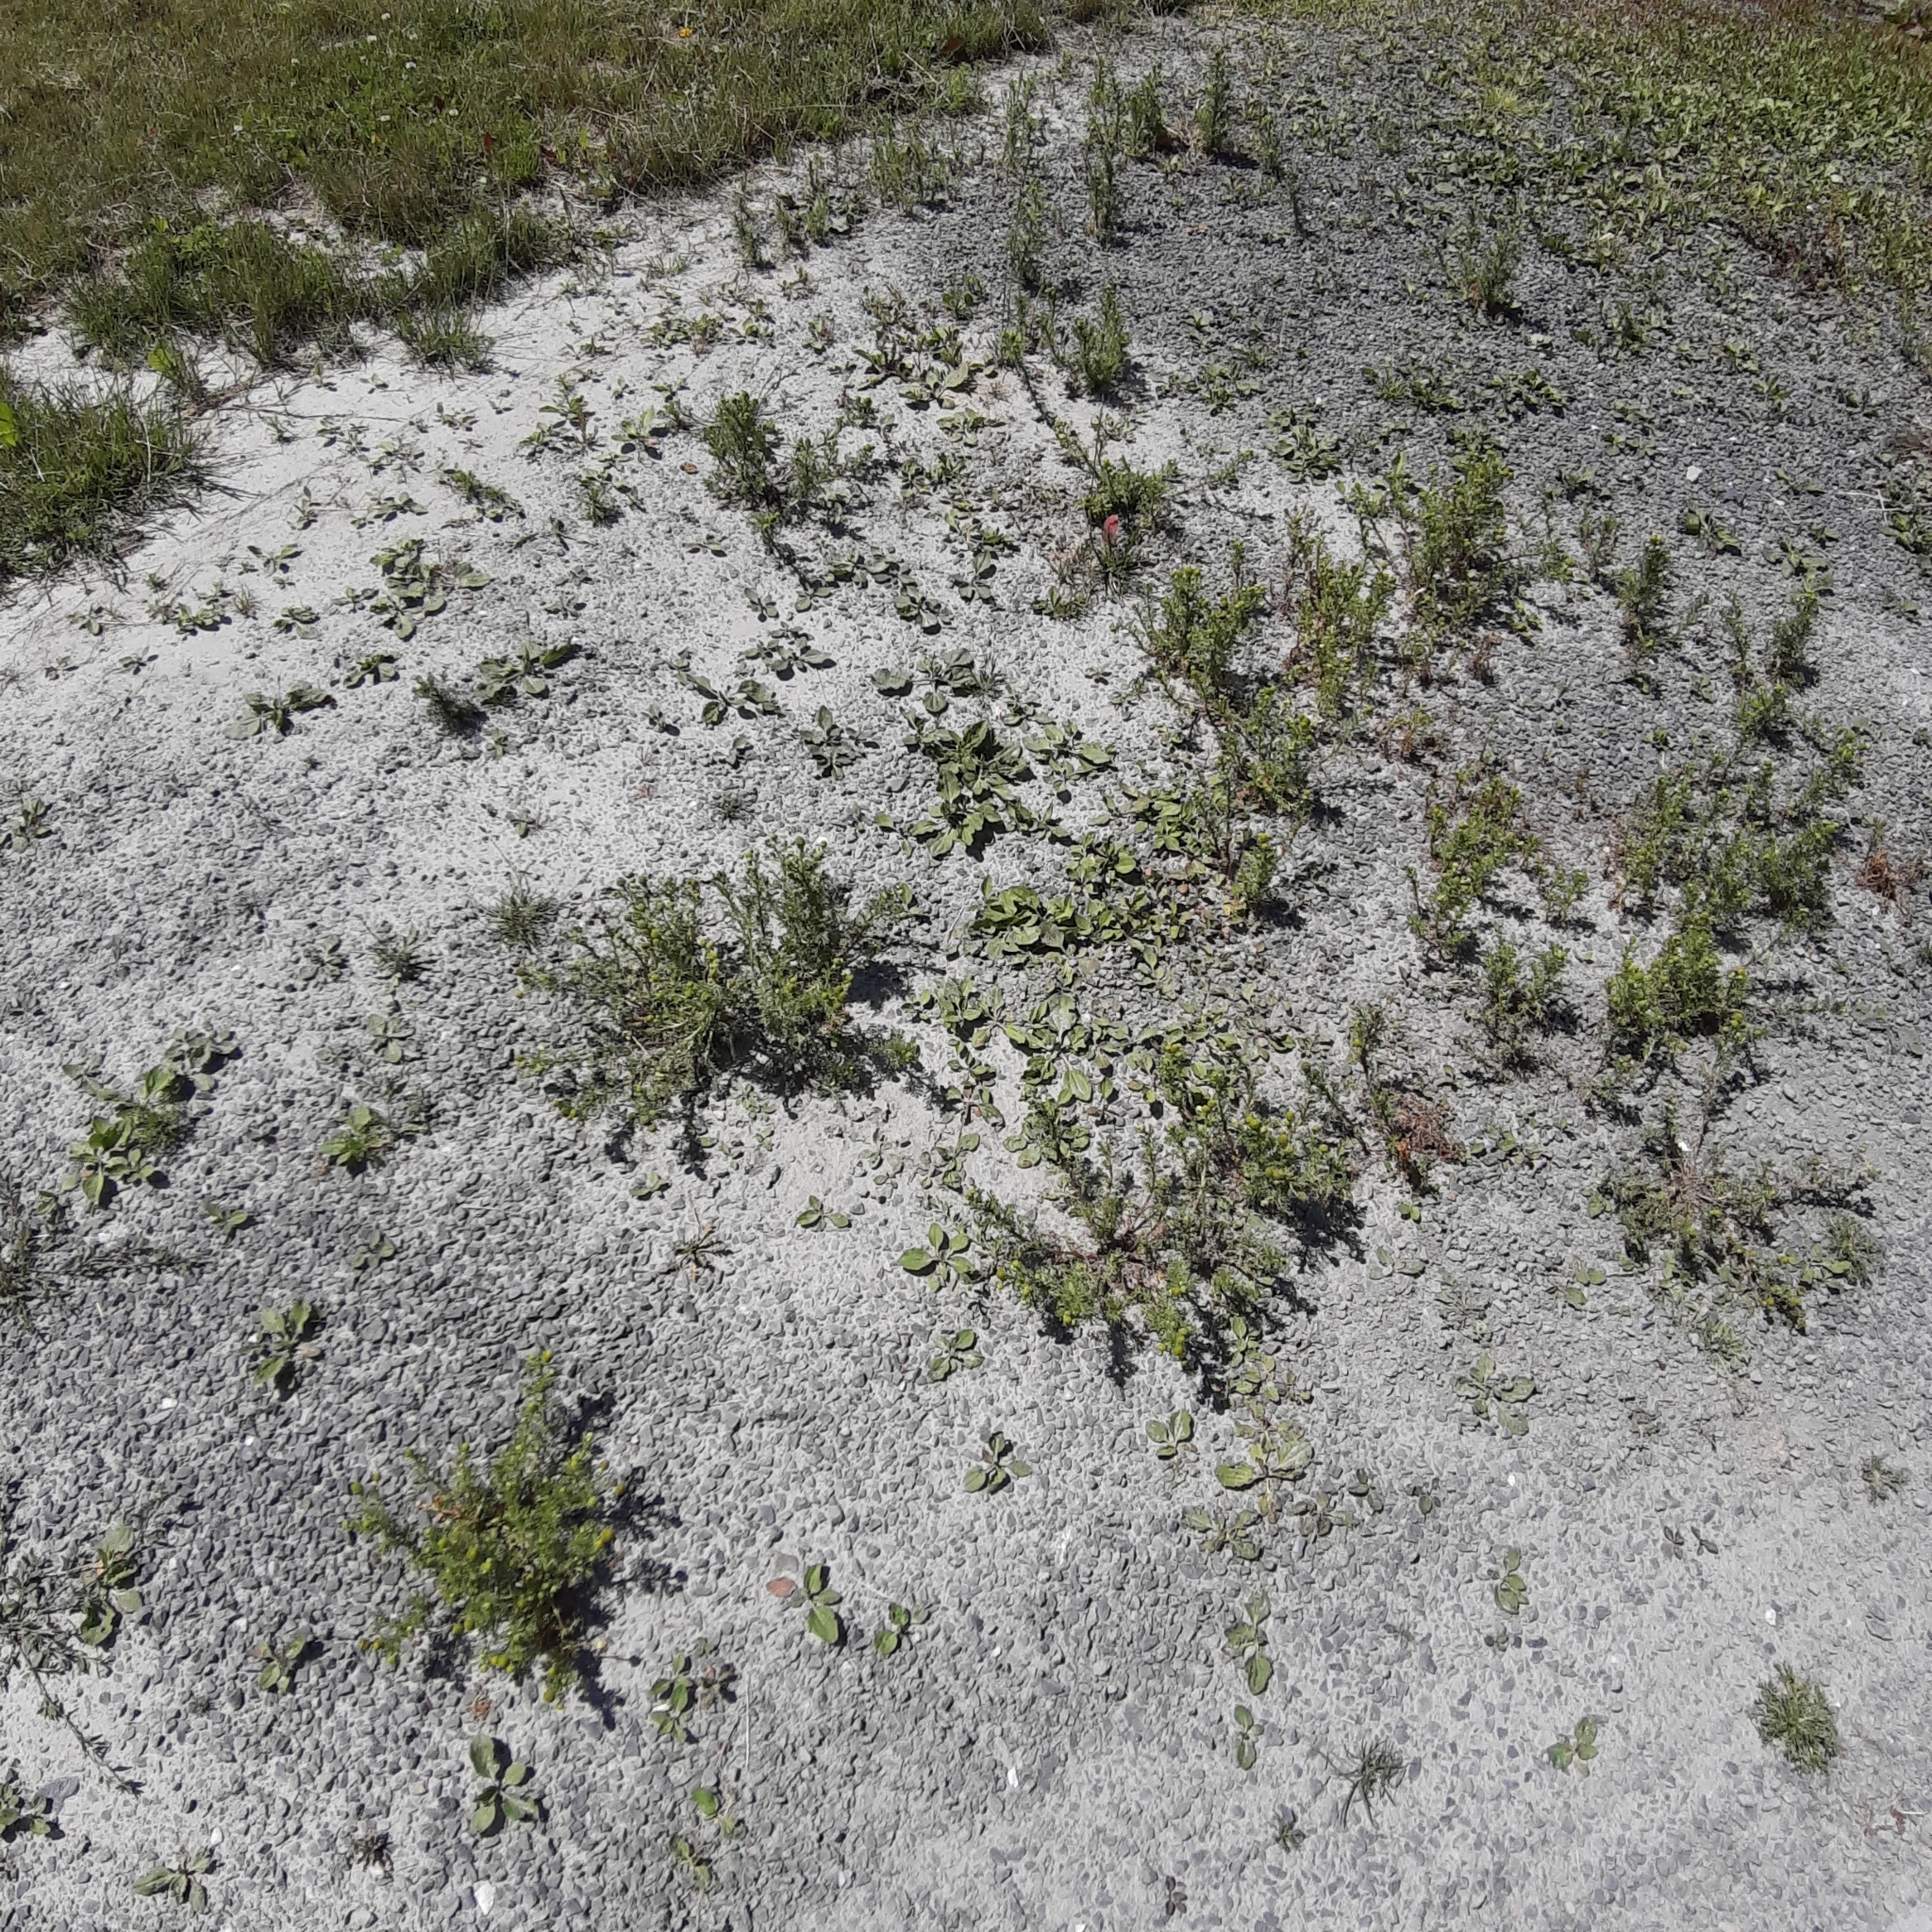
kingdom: Plantae
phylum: Tracheophyta
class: Magnoliopsida
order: Asterales
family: Asteraceae
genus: Matricaria
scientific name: Matricaria discoidea
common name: Disc mayweed
